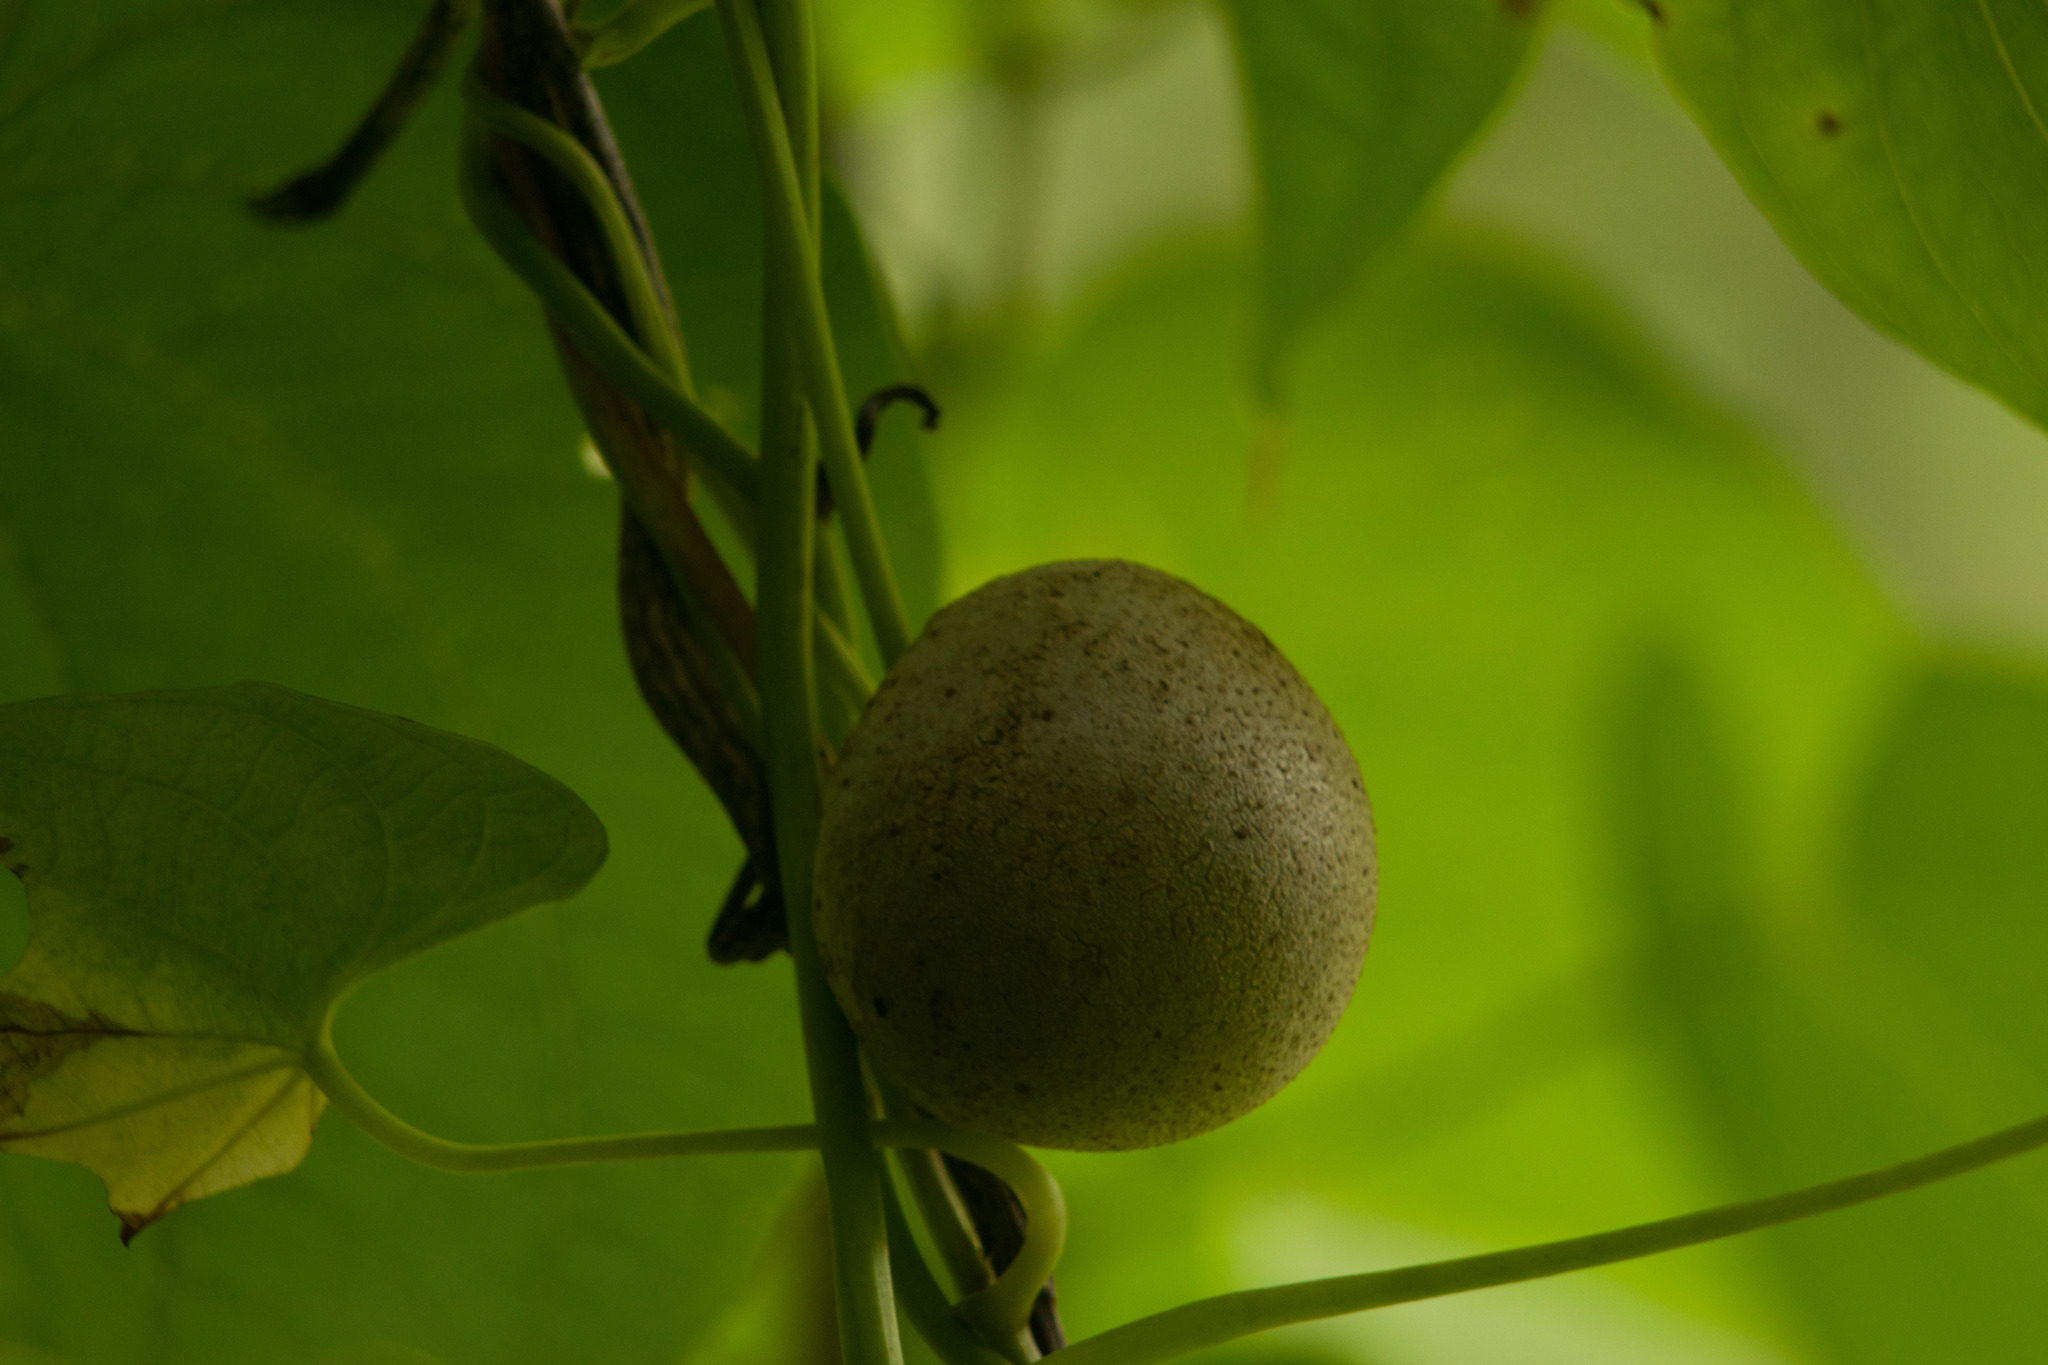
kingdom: Plantae
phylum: Tracheophyta
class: Liliopsida
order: Dioscoreales
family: Dioscoreaceae
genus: Dioscorea
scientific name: Dioscorea bulbifera
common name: Air yam
